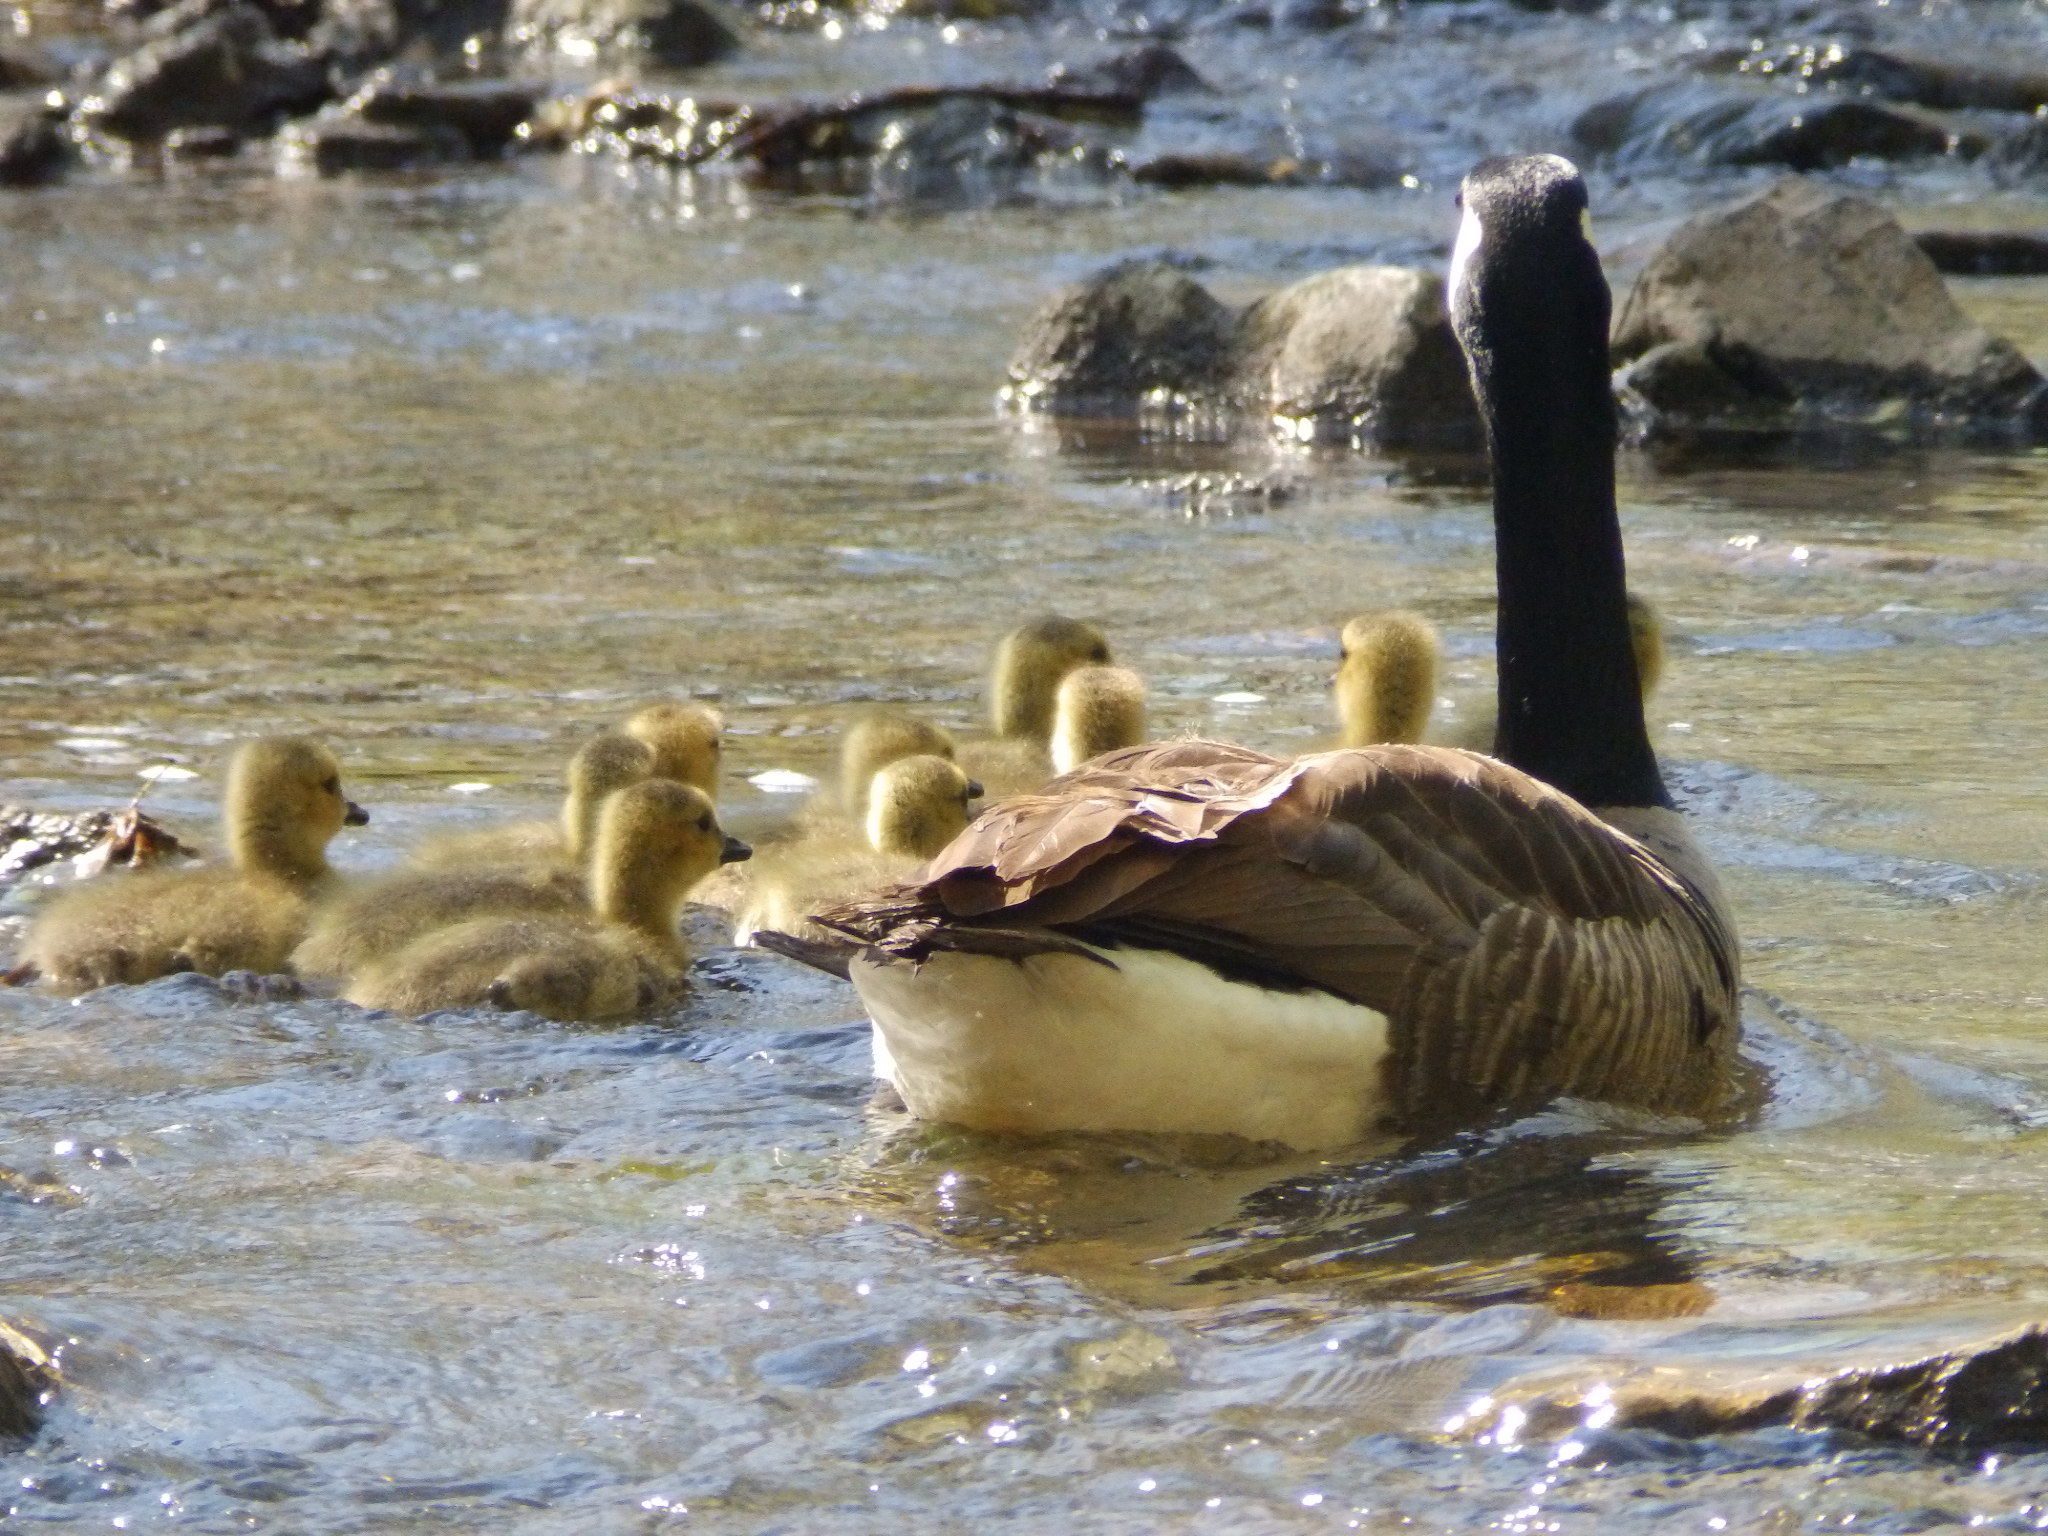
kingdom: Animalia
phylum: Chordata
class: Aves
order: Anseriformes
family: Anatidae
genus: Branta
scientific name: Branta canadensis
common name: Canada goose
